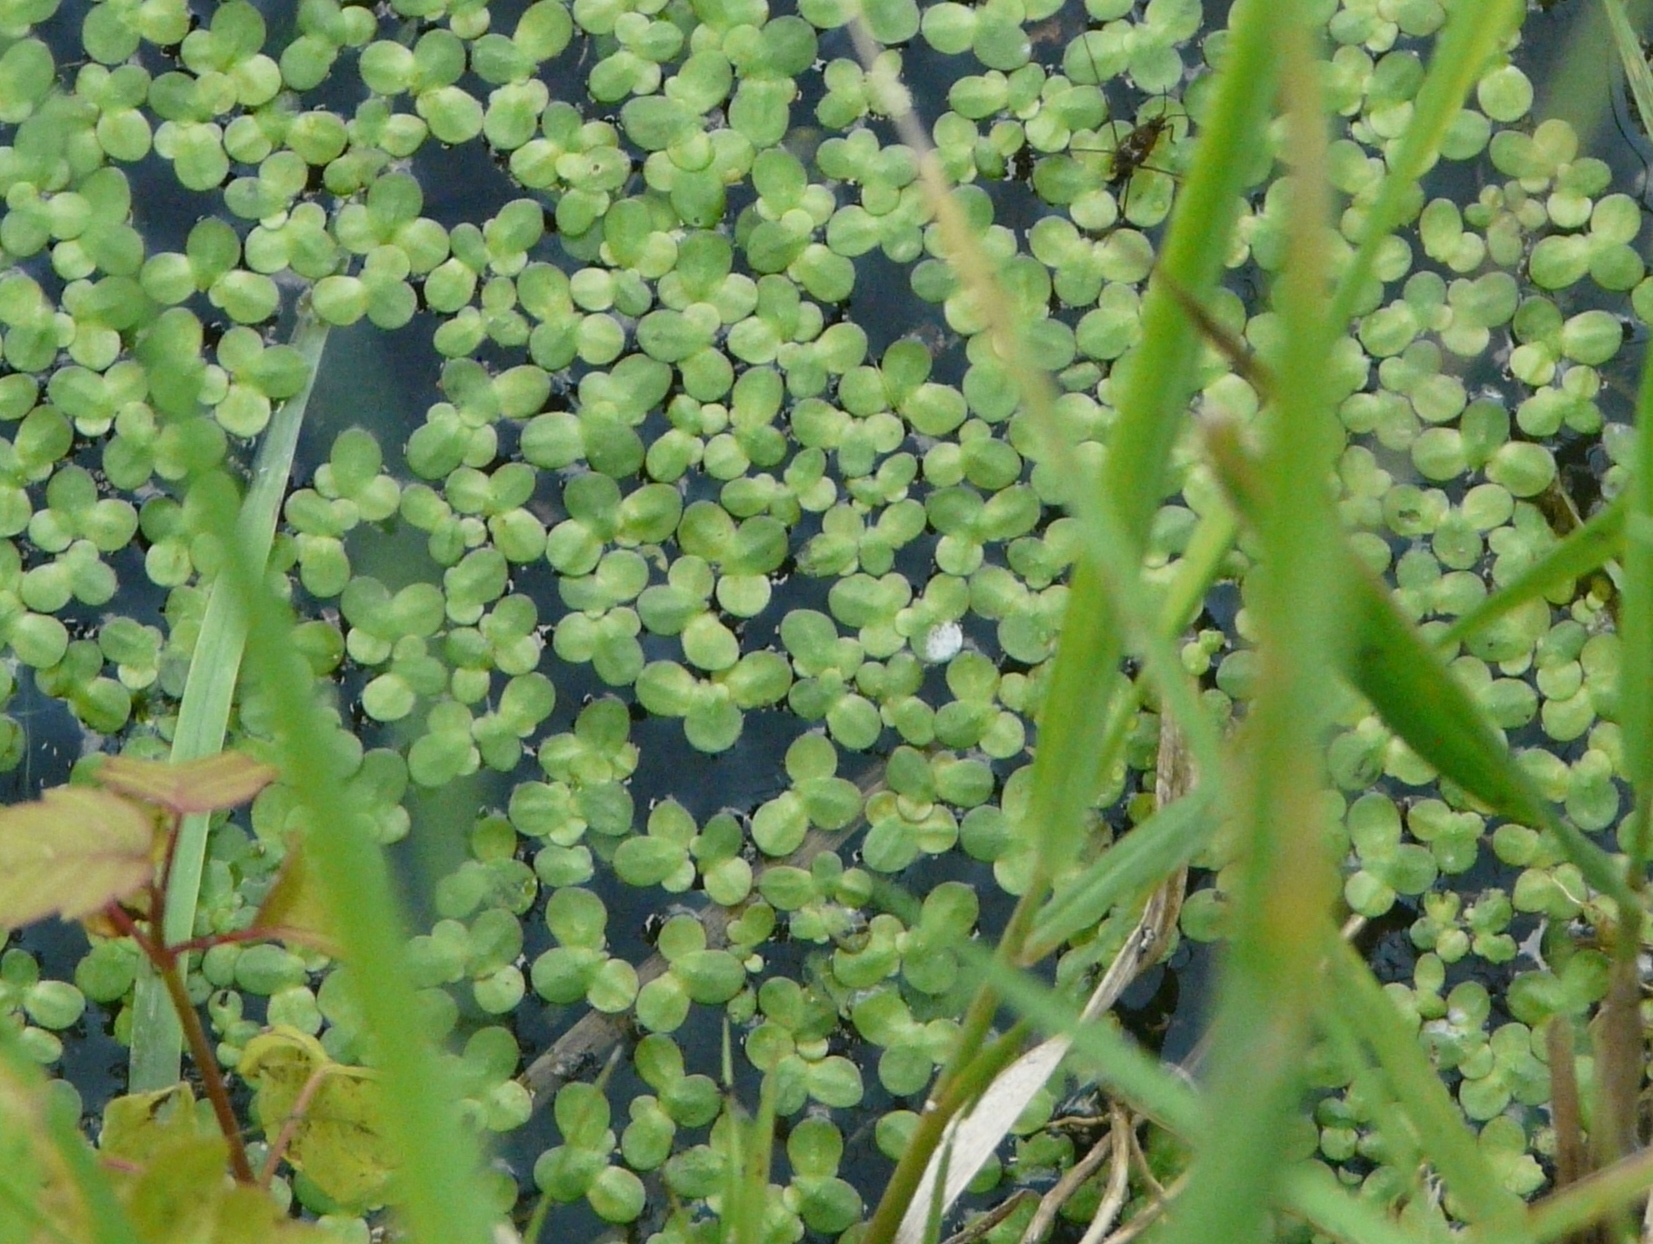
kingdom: Plantae
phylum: Tracheophyta
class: Liliopsida
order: Alismatales
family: Araceae
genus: Lemna
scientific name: Lemna minor
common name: Common duckweed
